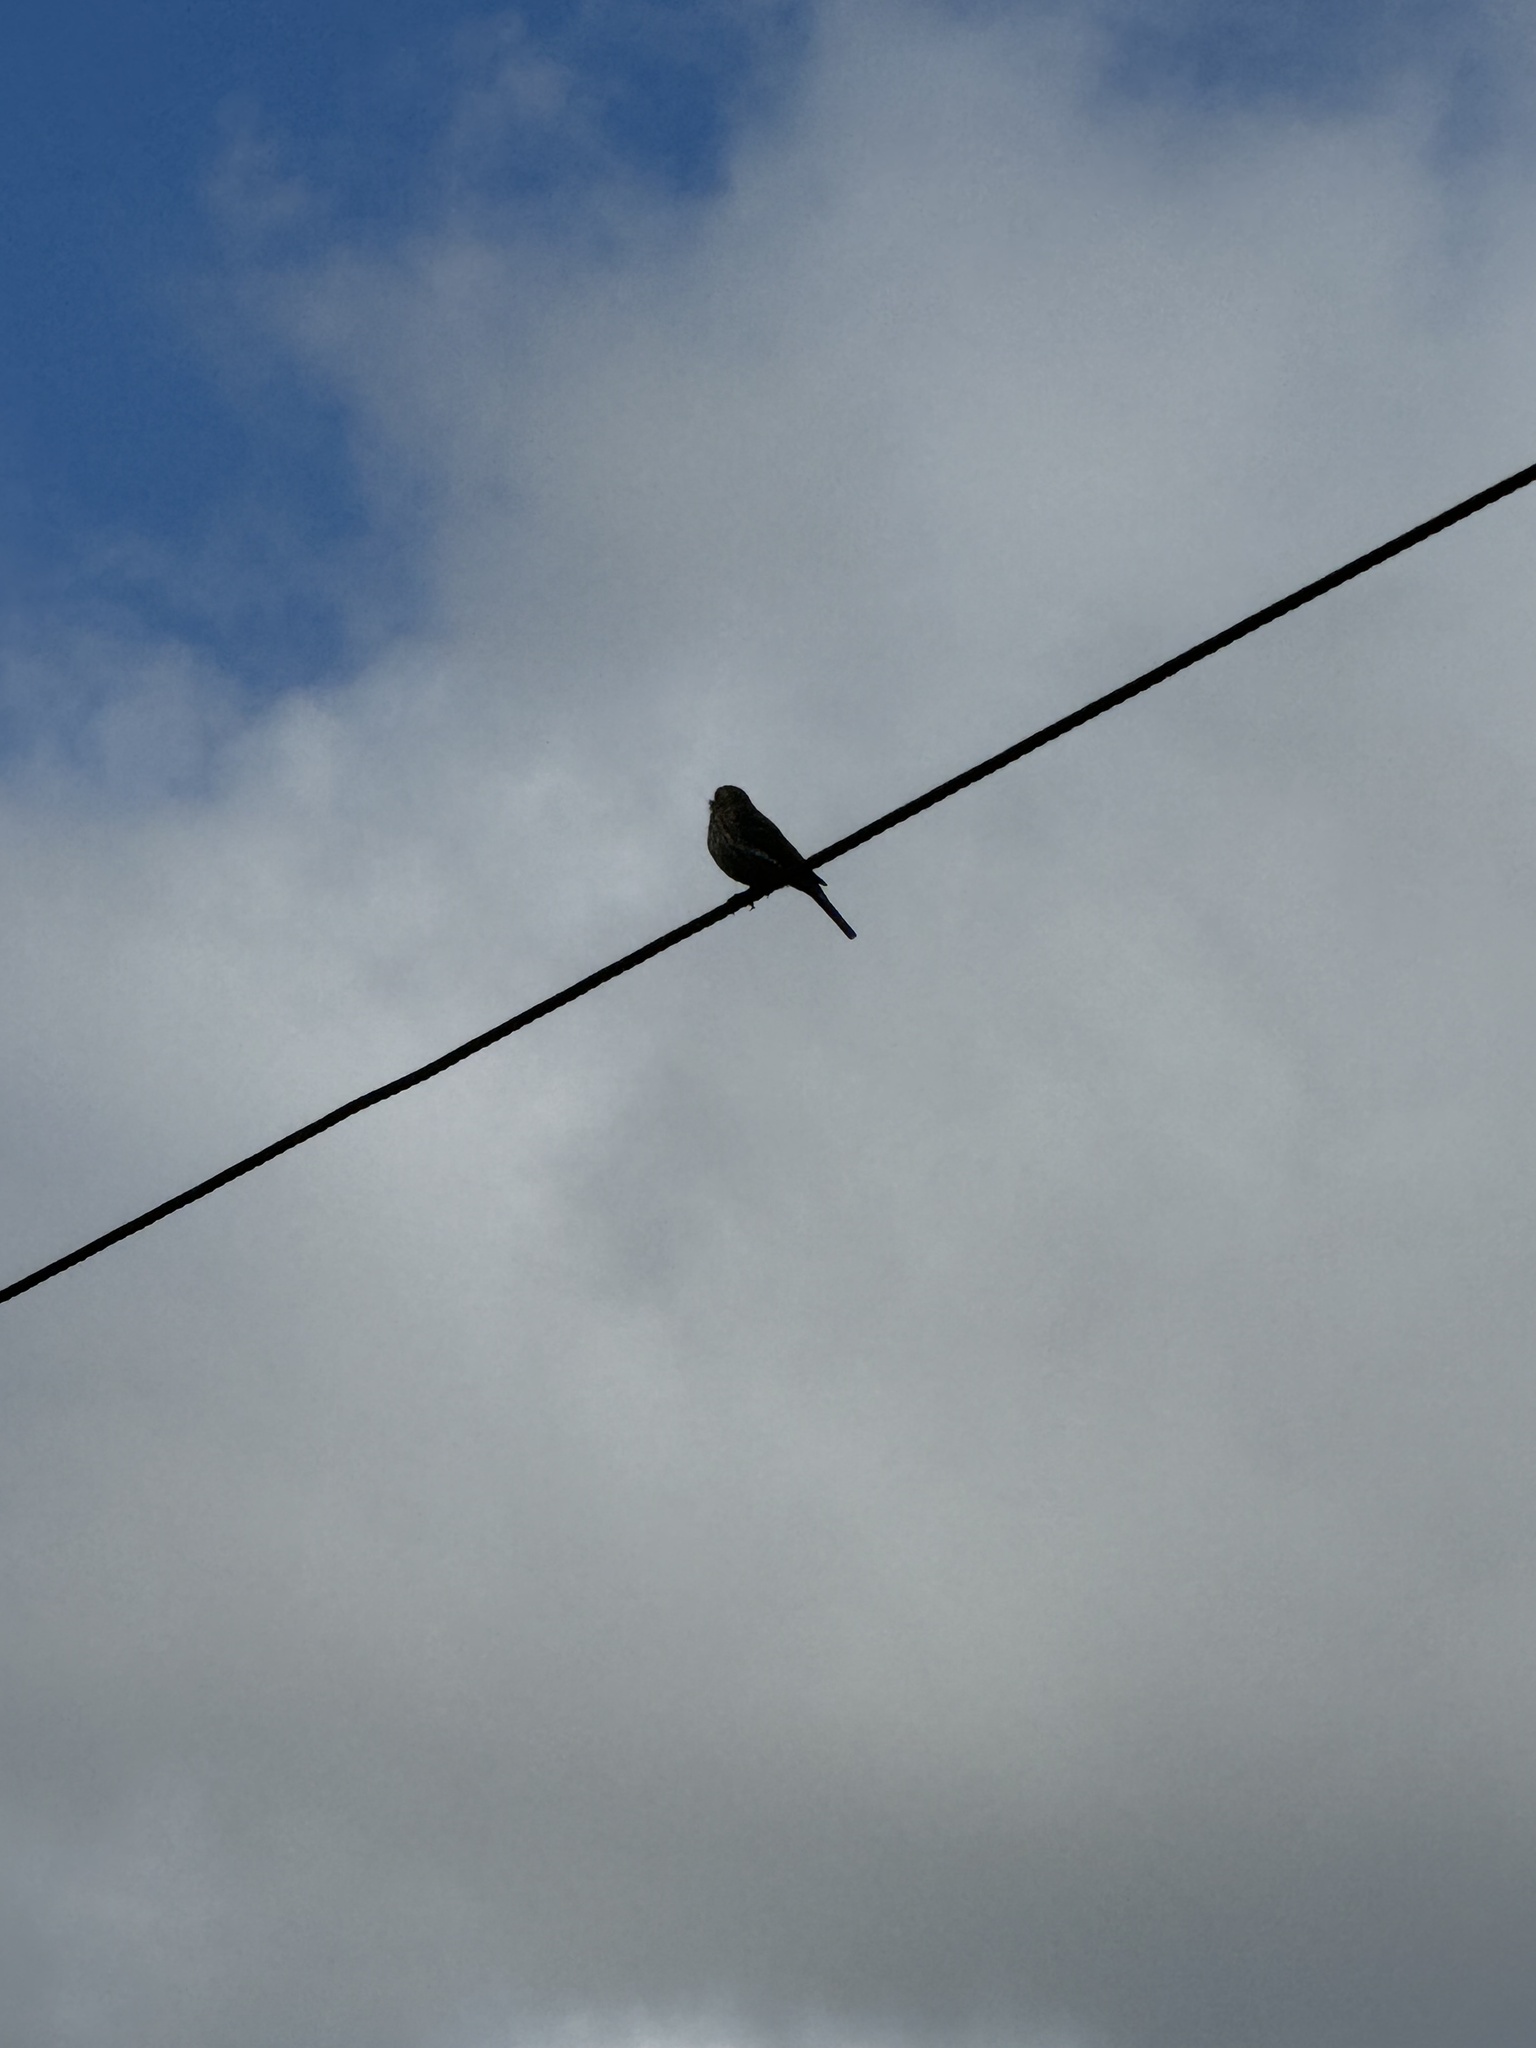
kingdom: Animalia
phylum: Chordata
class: Aves
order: Passeriformes
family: Fringillidae
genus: Haemorhous
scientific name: Haemorhous mexicanus
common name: House finch
